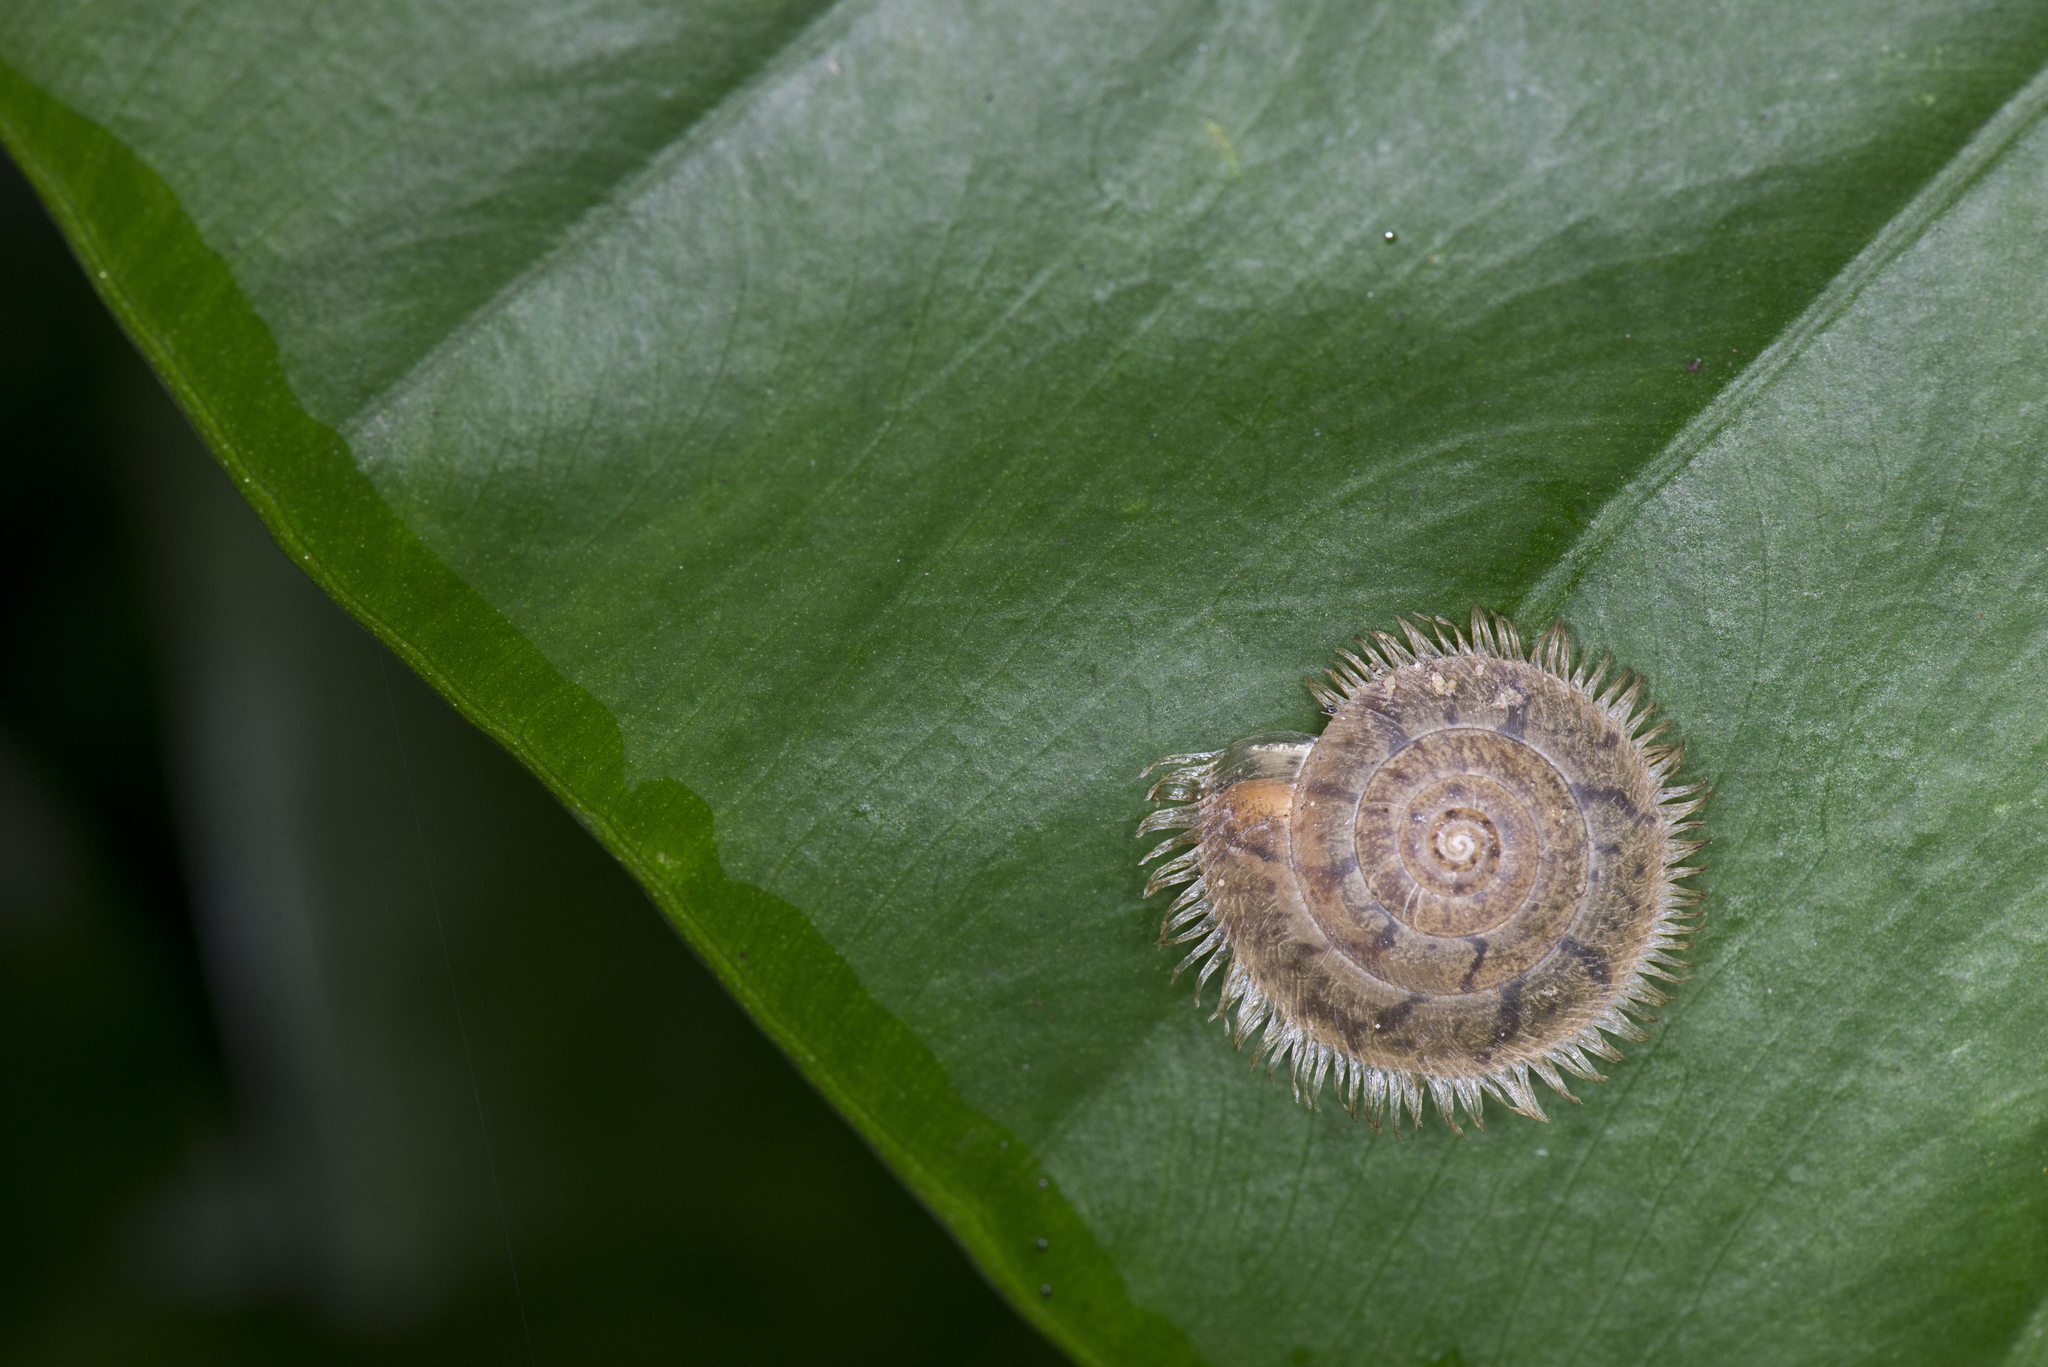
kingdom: Animalia
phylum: Mollusca
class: Gastropoda
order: Stylommatophora
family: Camaenidae
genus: Plectotropis
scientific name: Plectotropis mackensii
